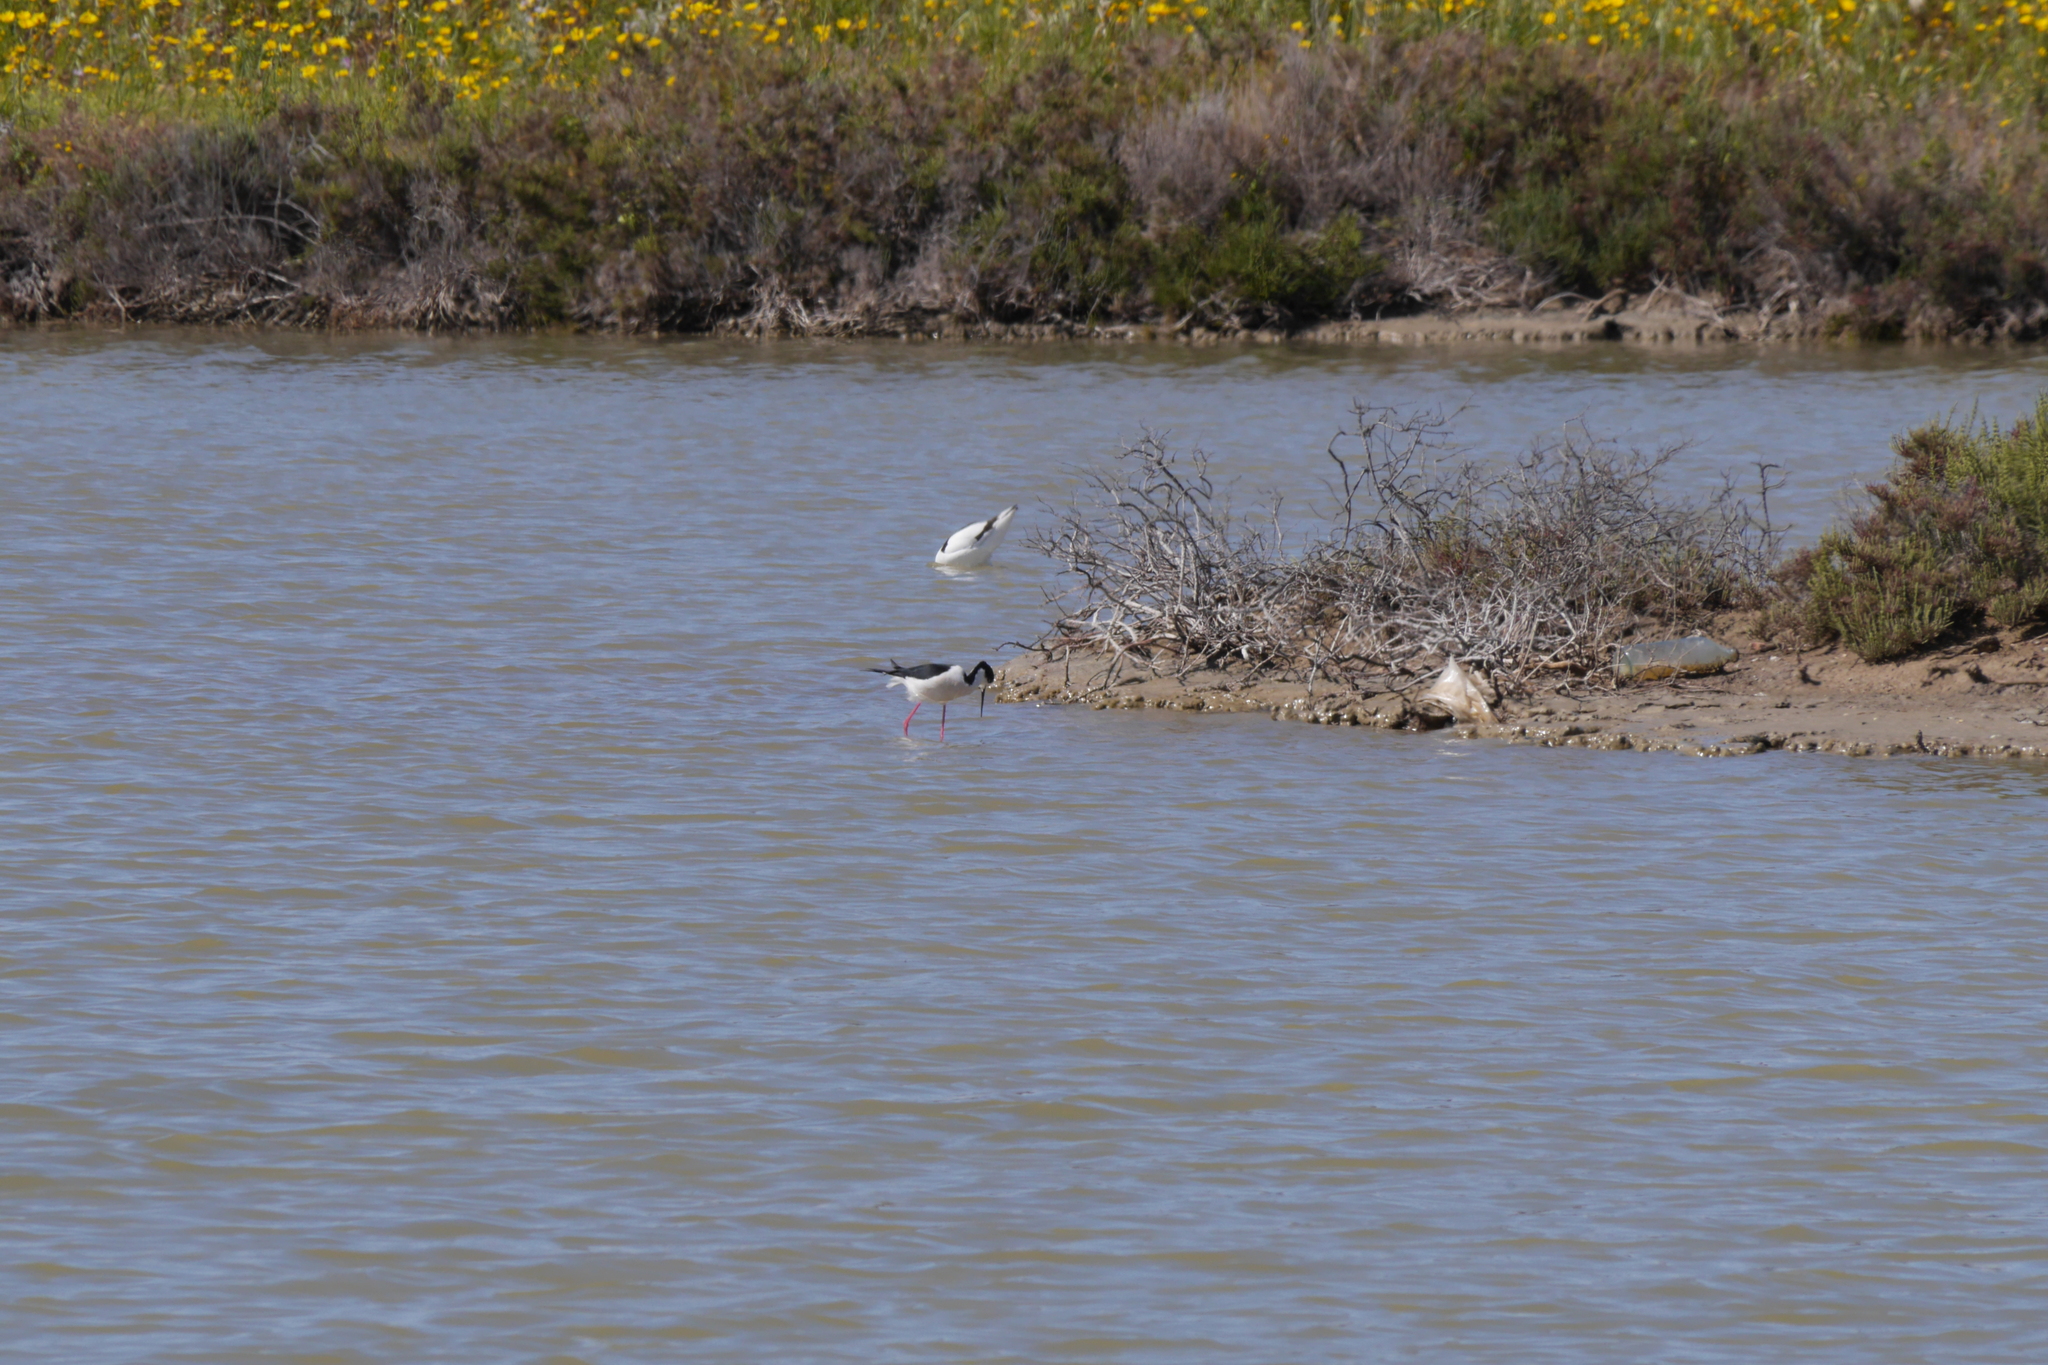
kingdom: Animalia
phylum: Chordata
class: Aves
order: Charadriiformes
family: Recurvirostridae
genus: Recurvirostra
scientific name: Recurvirostra avosetta
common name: Pied avocet
